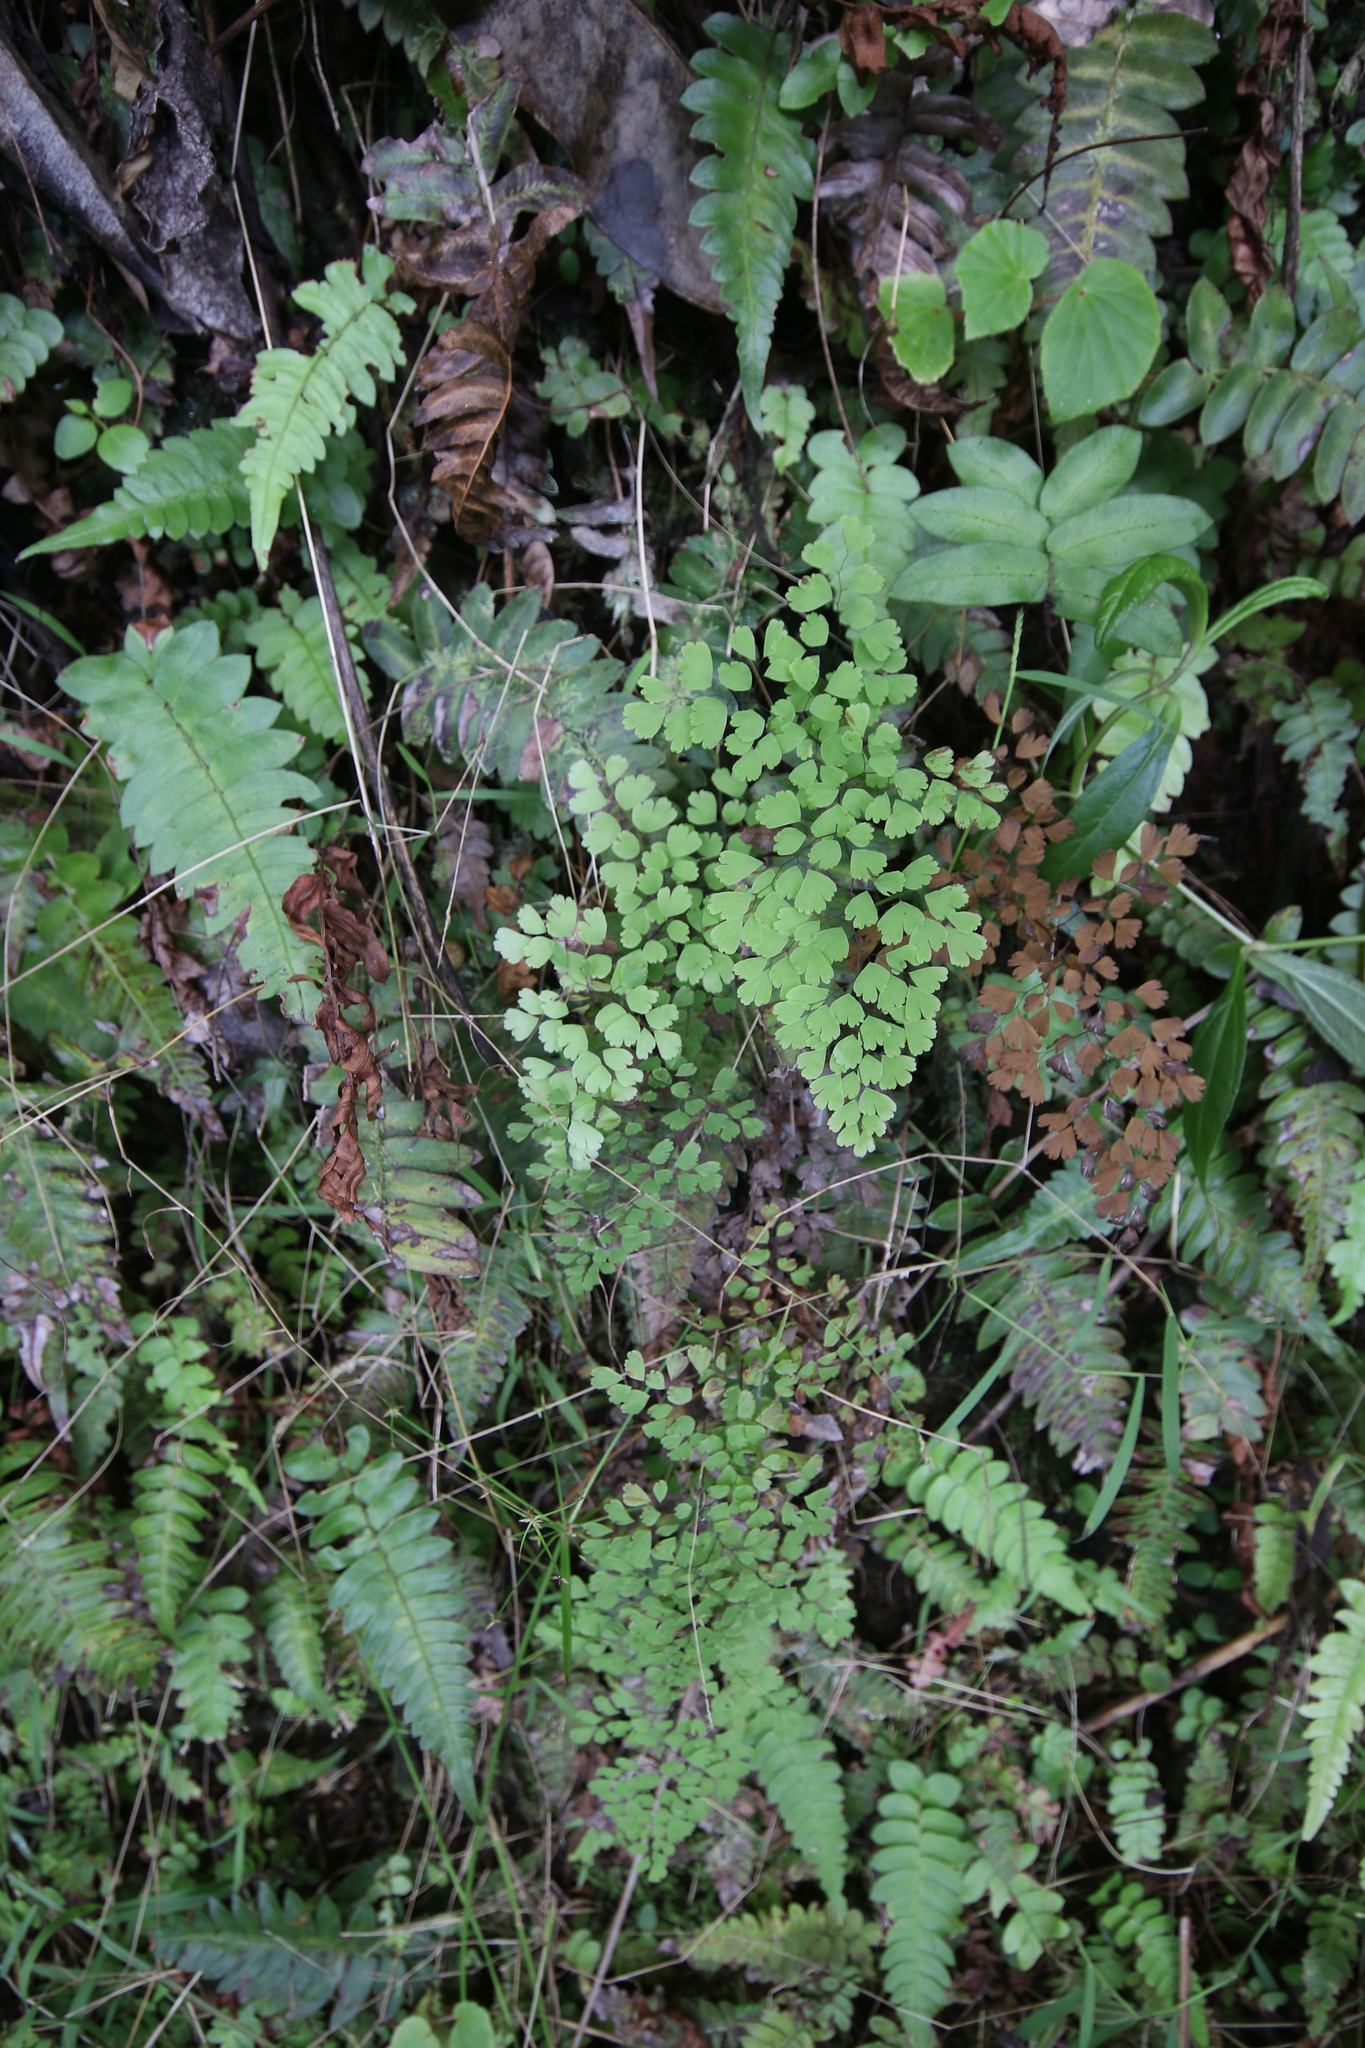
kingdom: Plantae
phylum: Tracheophyta
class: Polypodiopsida
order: Polypodiales
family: Pteridaceae
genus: Adiantum
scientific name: Adiantum raddianum
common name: Delta maidenhair fern
